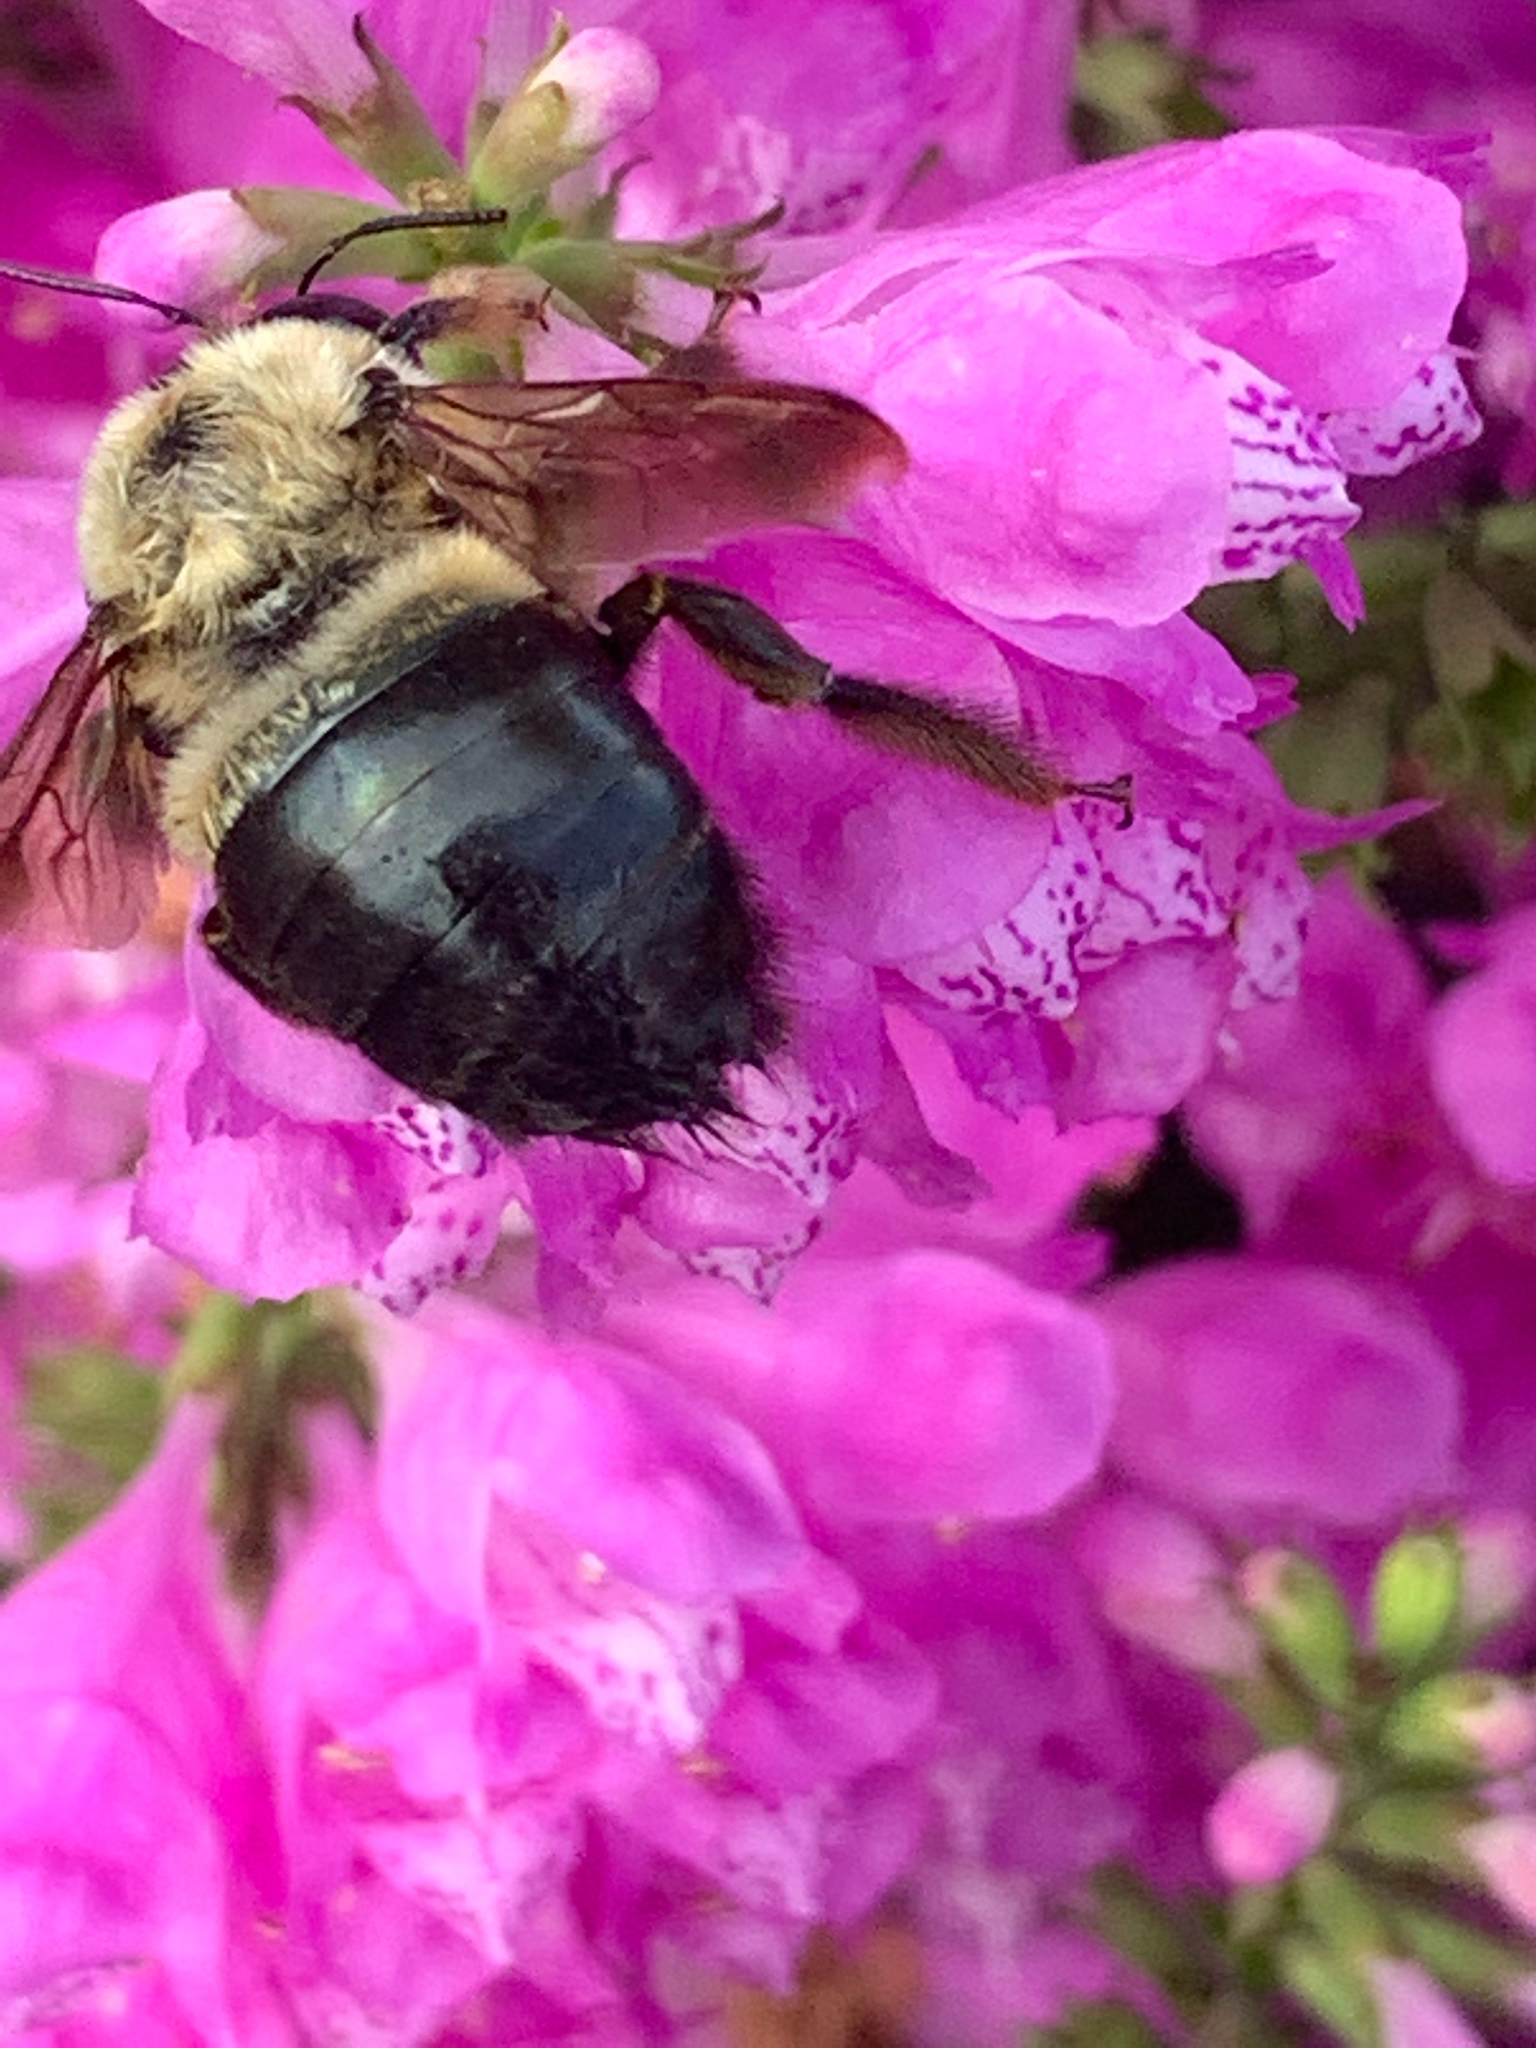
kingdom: Animalia
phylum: Arthropoda
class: Insecta
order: Hymenoptera
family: Apidae
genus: Xylocopa
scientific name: Xylocopa virginica
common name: Carpenter bee
